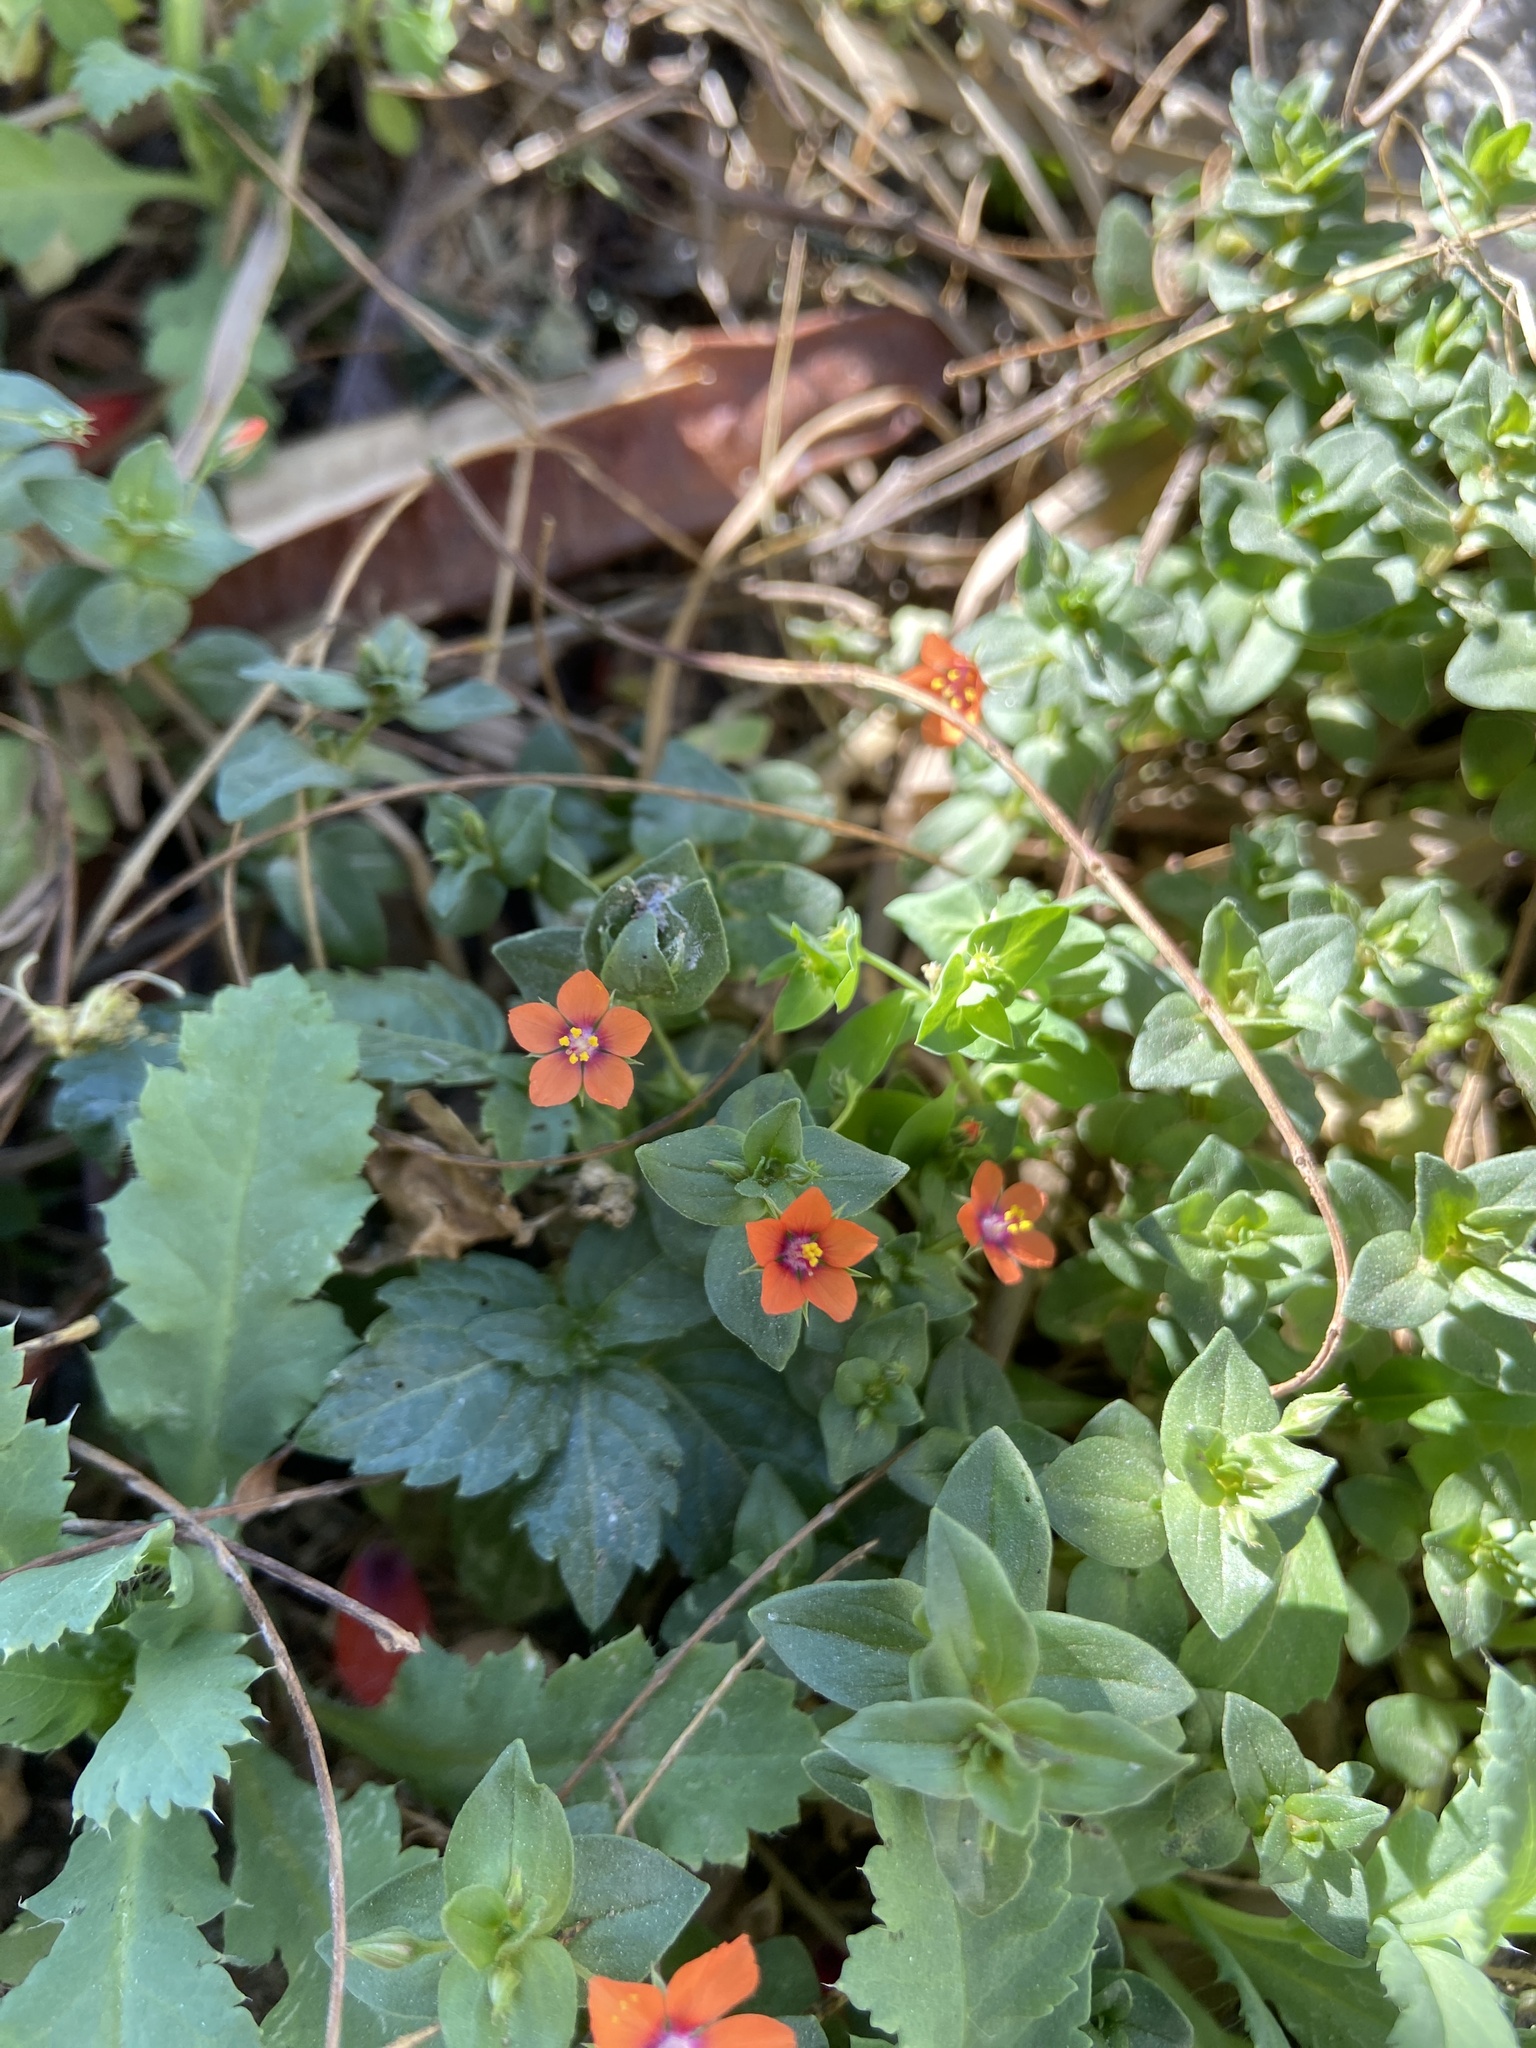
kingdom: Plantae
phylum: Tracheophyta
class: Magnoliopsida
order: Ericales
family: Primulaceae
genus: Lysimachia
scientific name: Lysimachia arvensis
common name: Scarlet pimpernel
